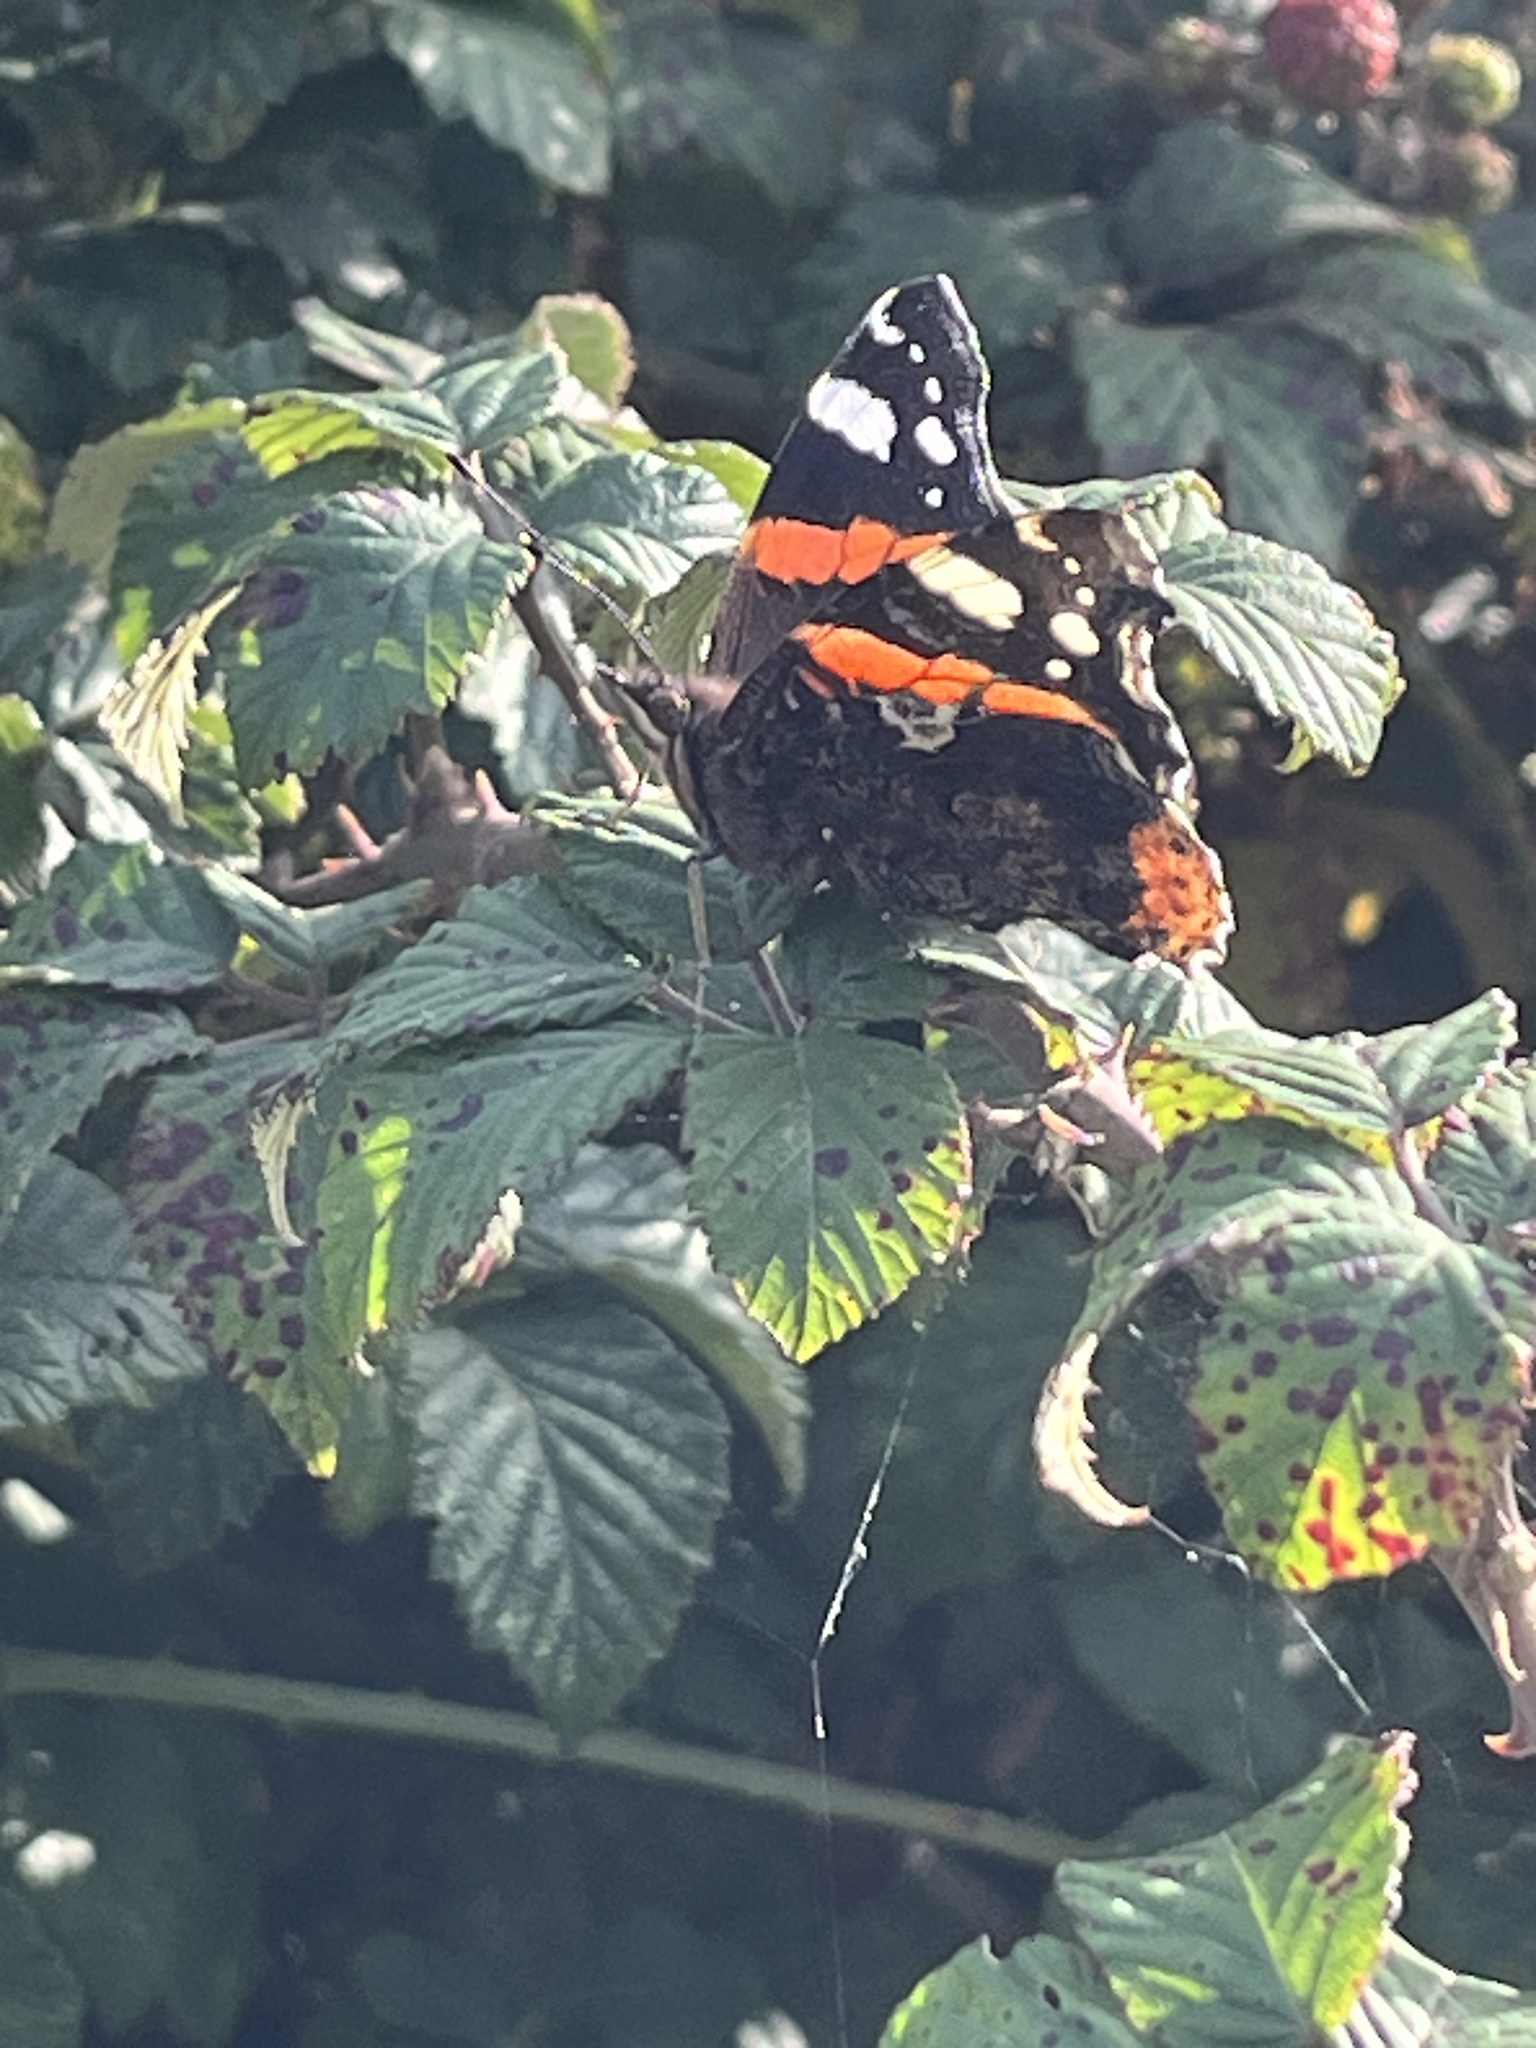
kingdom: Animalia
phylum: Arthropoda
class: Insecta
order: Lepidoptera
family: Nymphalidae
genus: Vanessa
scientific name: Vanessa atalanta
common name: Red admiral
